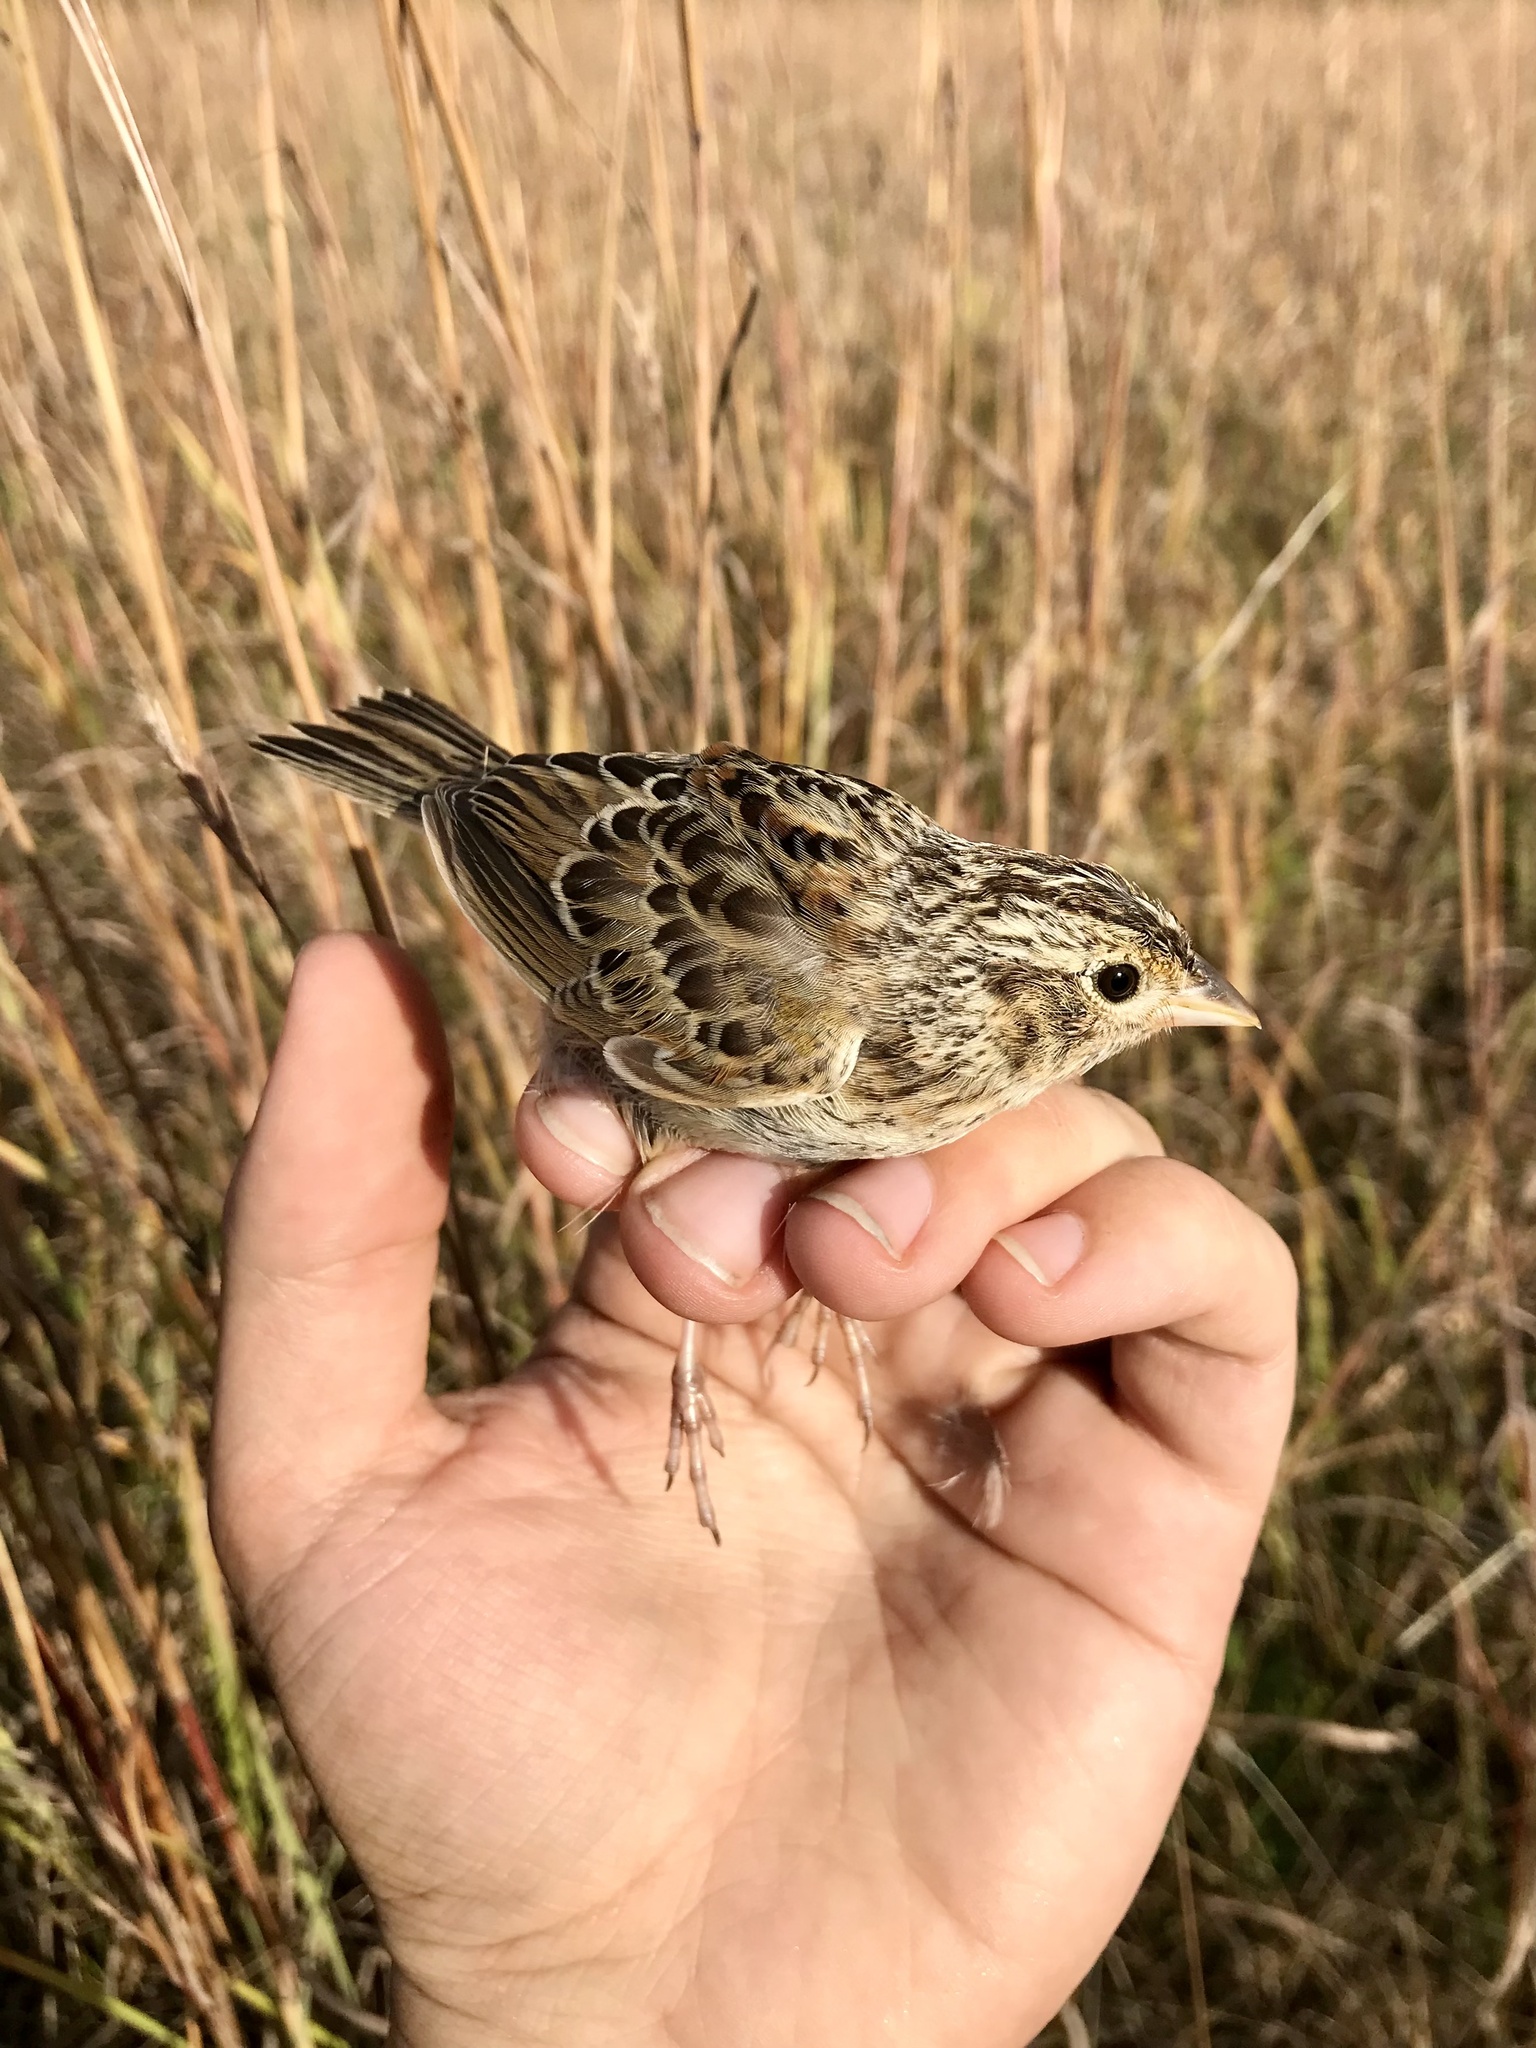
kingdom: Animalia
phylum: Chordata
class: Aves
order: Passeriformes
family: Passerellidae
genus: Ammodramus
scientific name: Ammodramus savannarum
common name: Grasshopper sparrow
